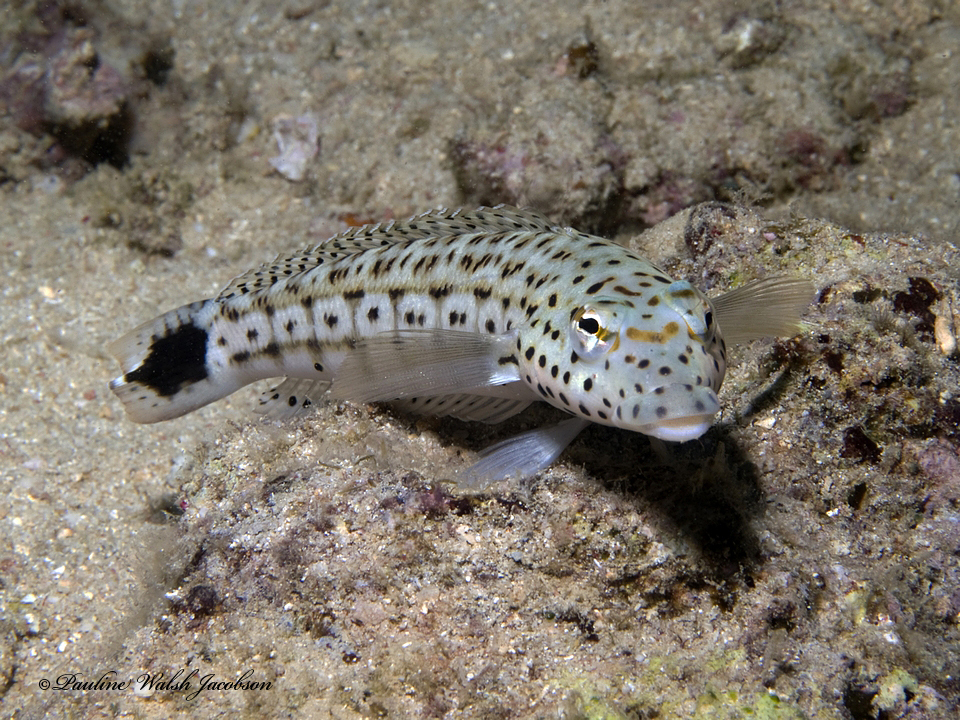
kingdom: Animalia
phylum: Chordata
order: Perciformes
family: Pinguipedidae
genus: Parapercis
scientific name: Parapercis xanthogramma
